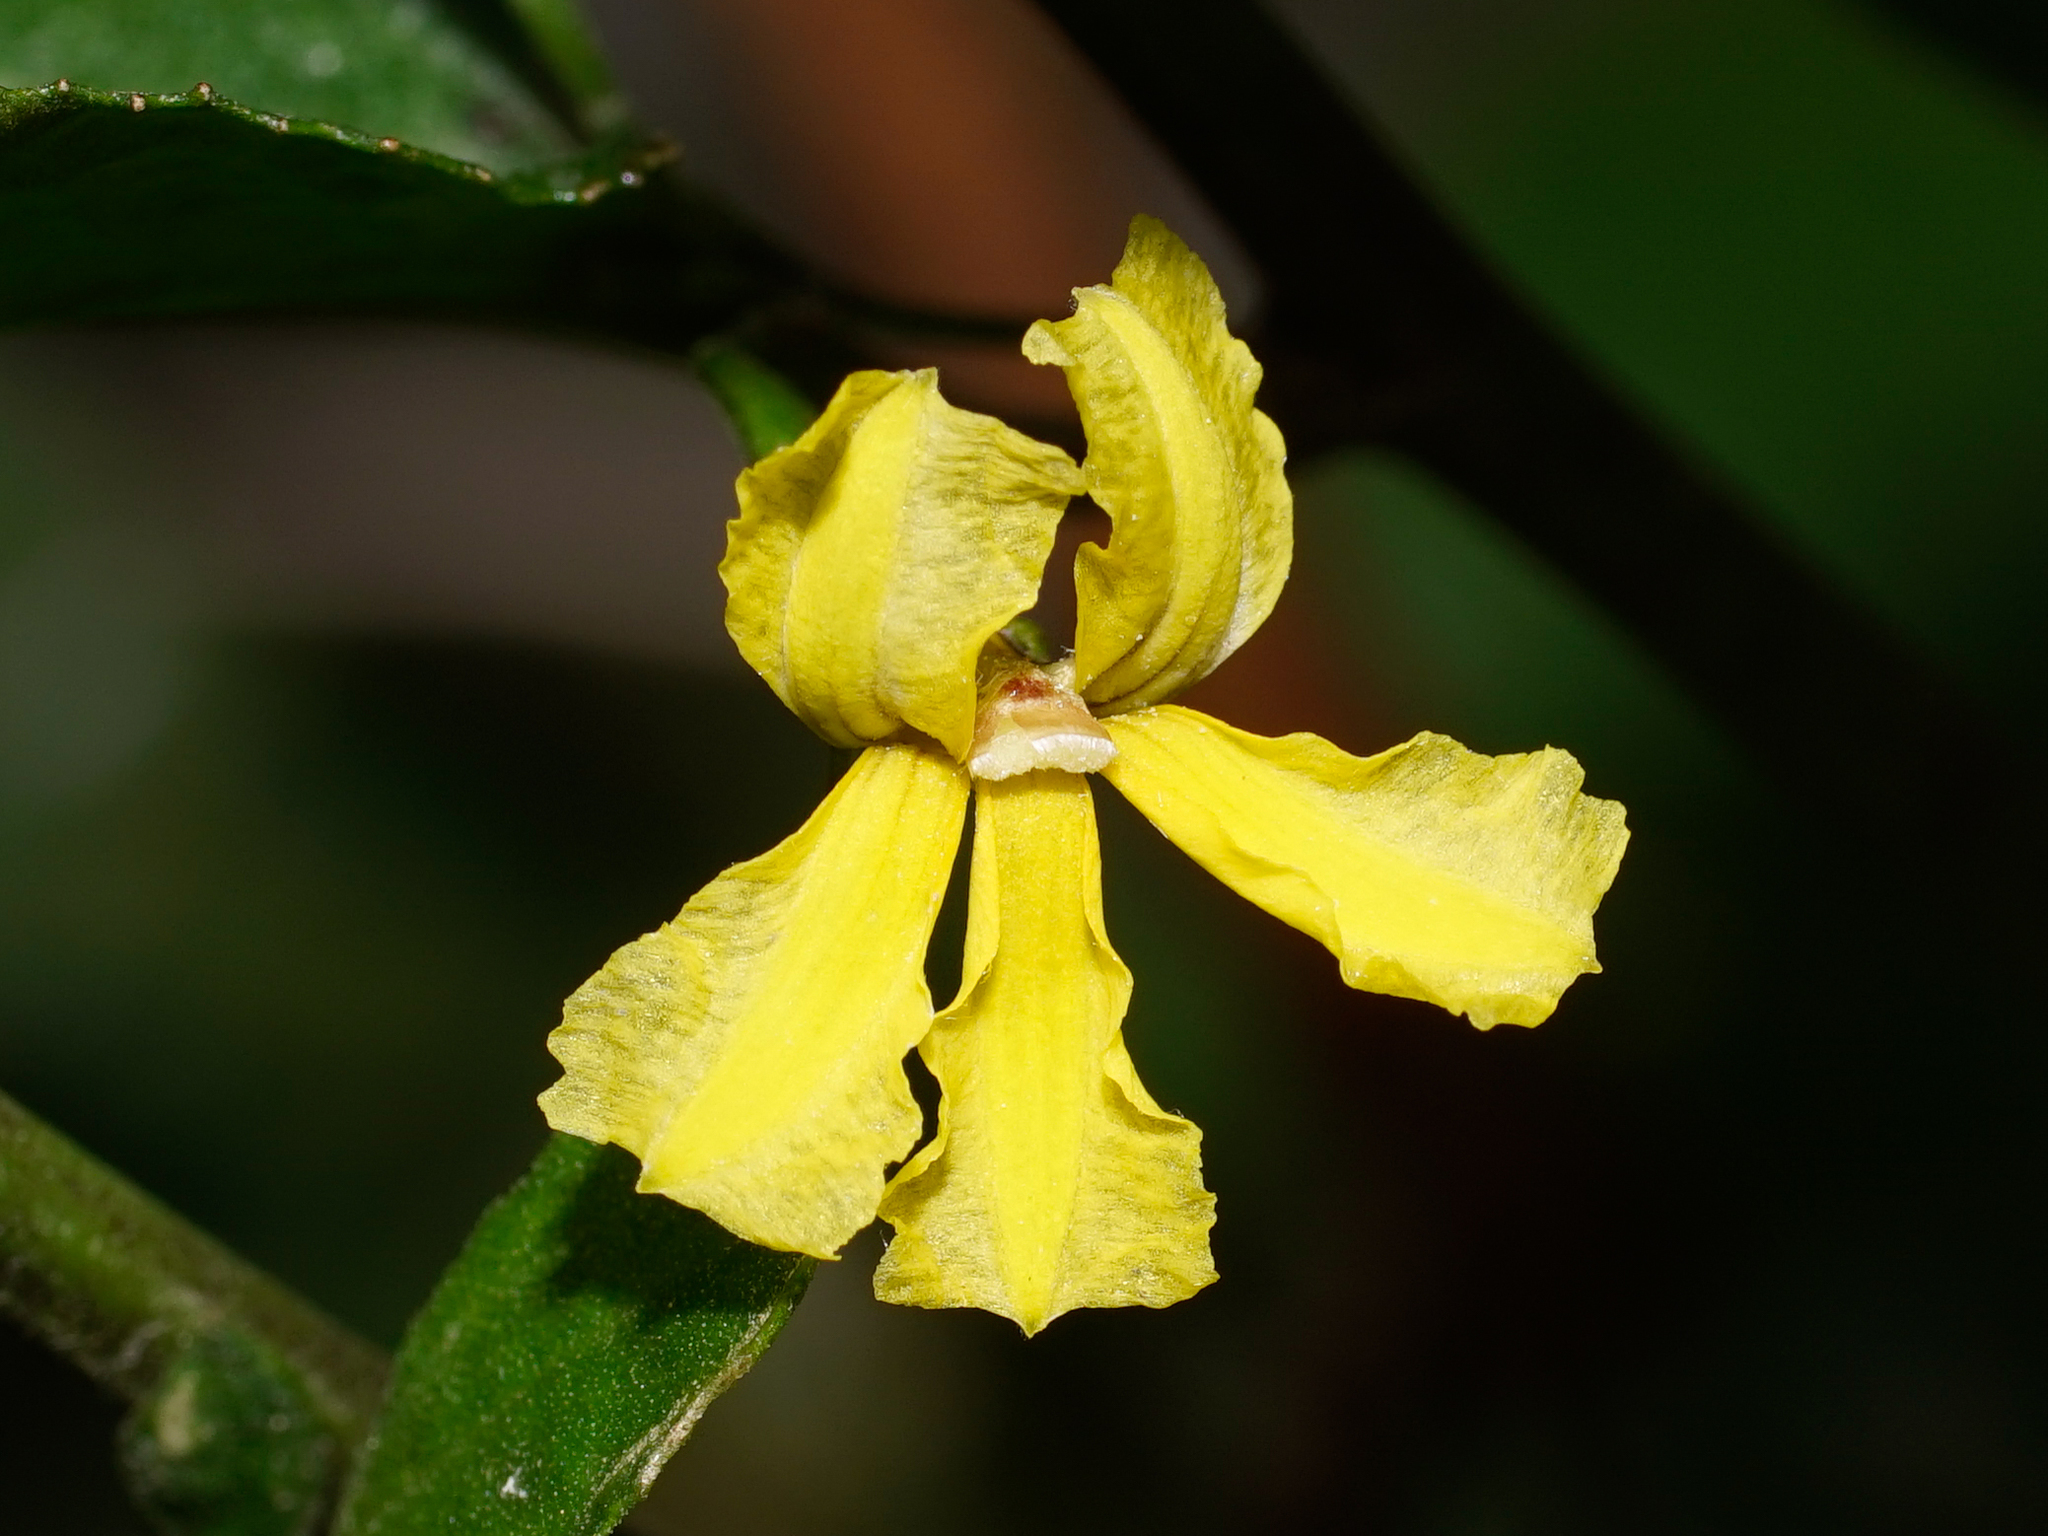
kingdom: Plantae
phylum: Tracheophyta
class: Magnoliopsida
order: Asterales
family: Goodeniaceae
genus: Goodenia
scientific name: Goodenia ovata
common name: Hop goodenia
